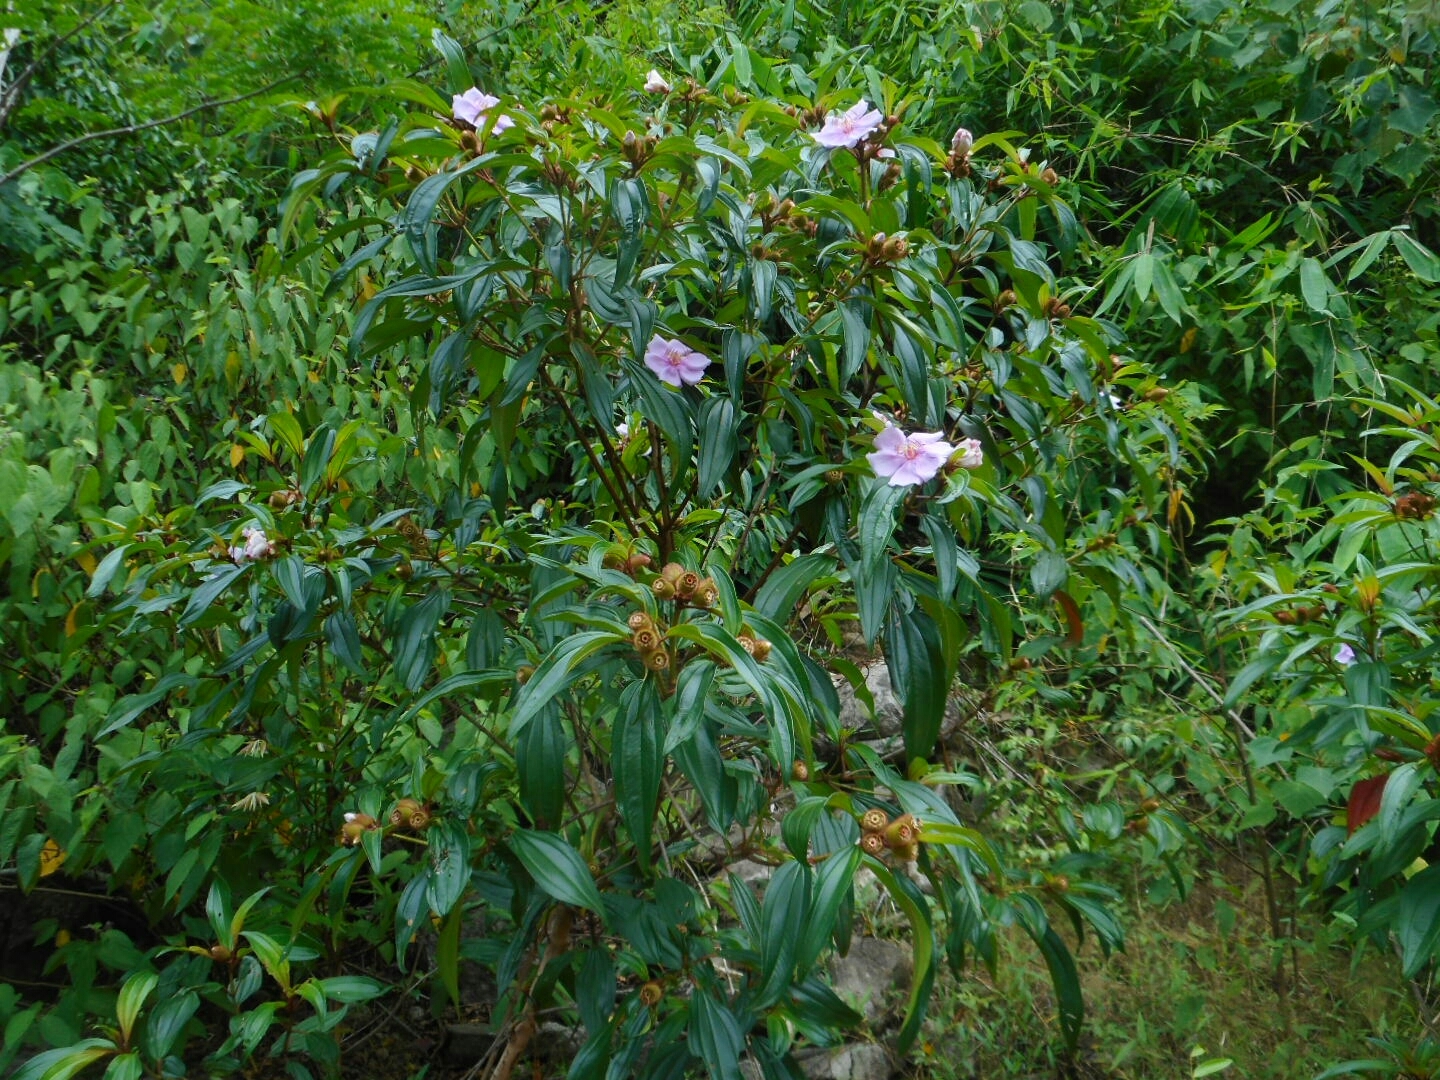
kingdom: Plantae
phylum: Tracheophyta
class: Magnoliopsida
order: Myrtales
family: Melastomataceae
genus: Melastoma
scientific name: Melastoma sanguineum
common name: Red melastome
